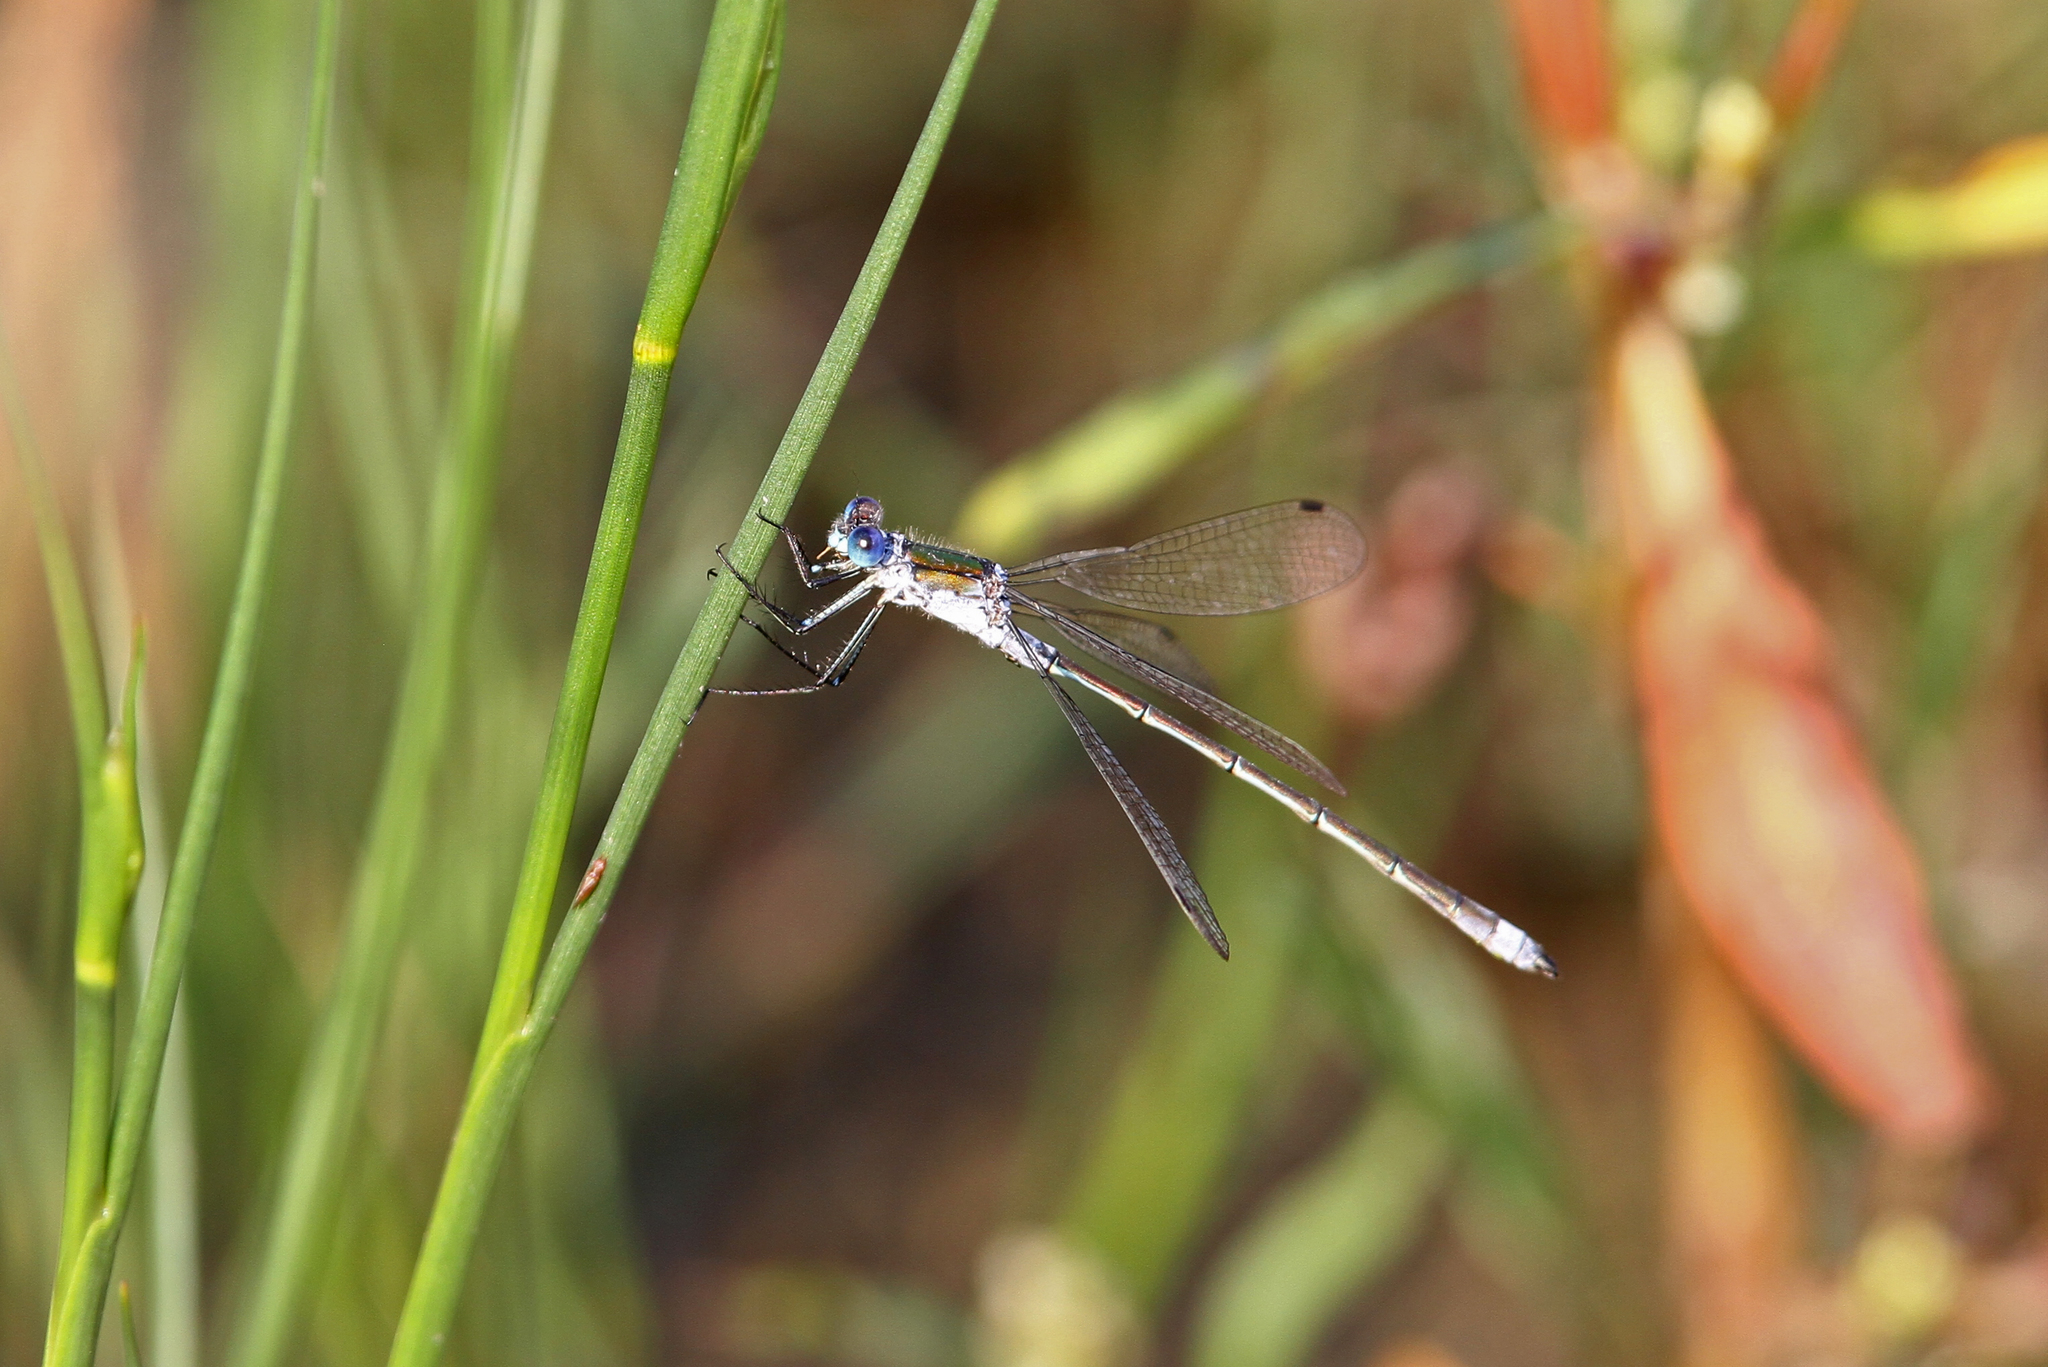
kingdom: Animalia
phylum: Arthropoda
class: Insecta
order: Odonata
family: Lestidae
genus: Lestes
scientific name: Lestes sponsa
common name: Common spreadwing
